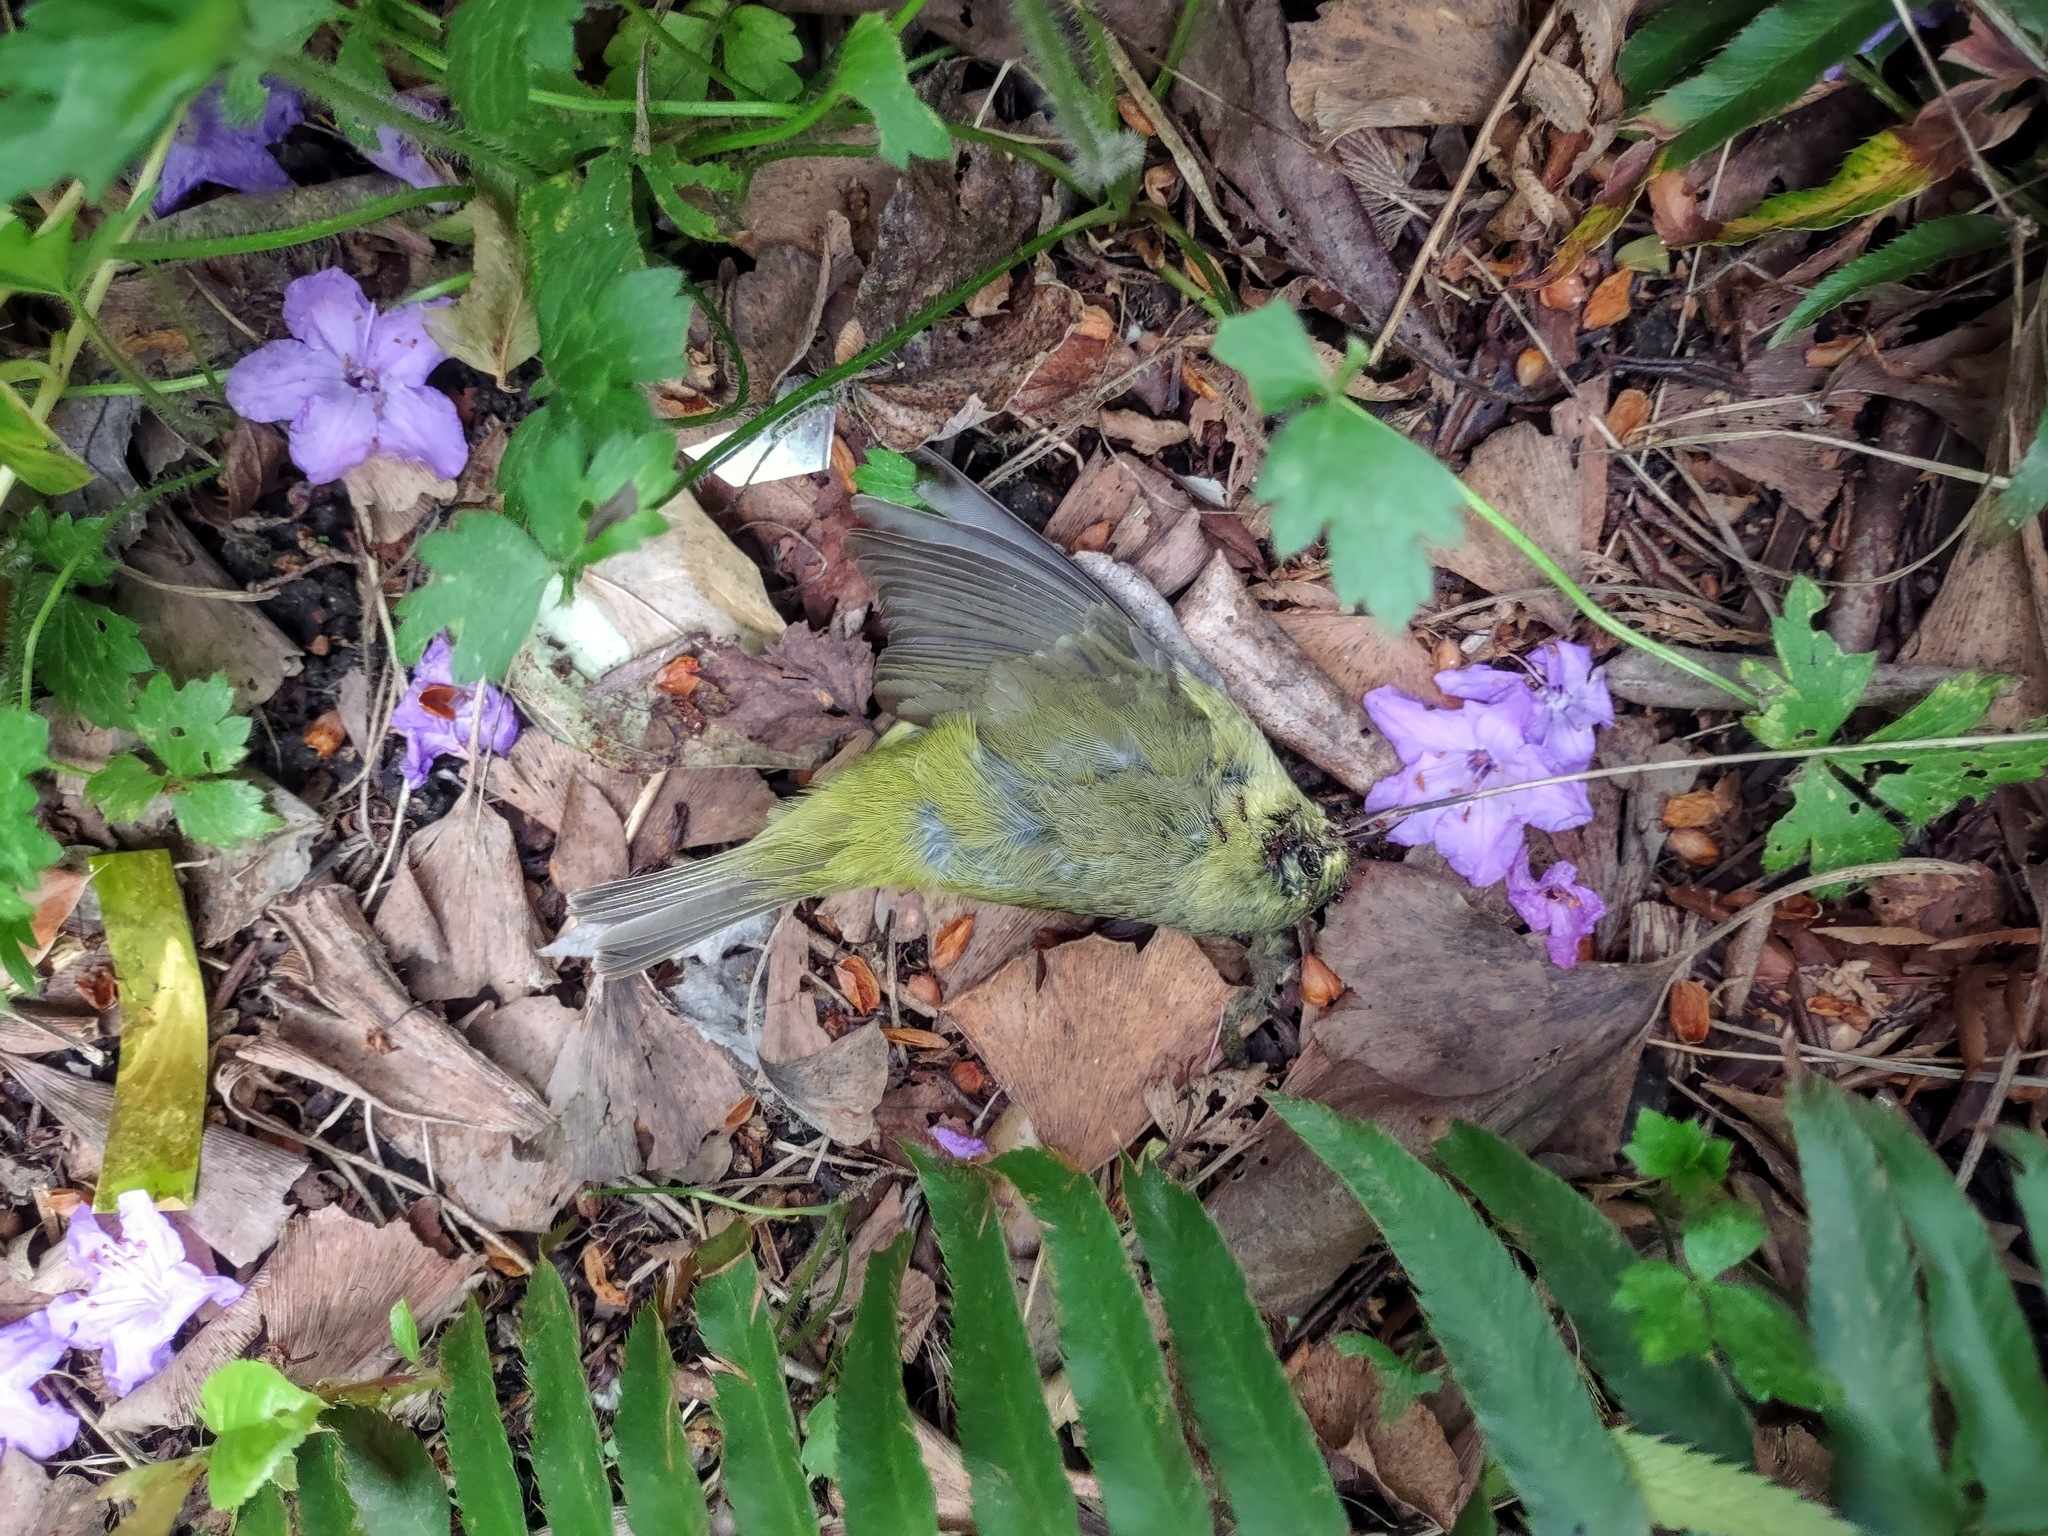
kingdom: Animalia
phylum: Chordata
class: Aves
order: Passeriformes
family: Parulidae
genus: Leiothlypis
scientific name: Leiothlypis celata
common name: Orange-crowned warbler
